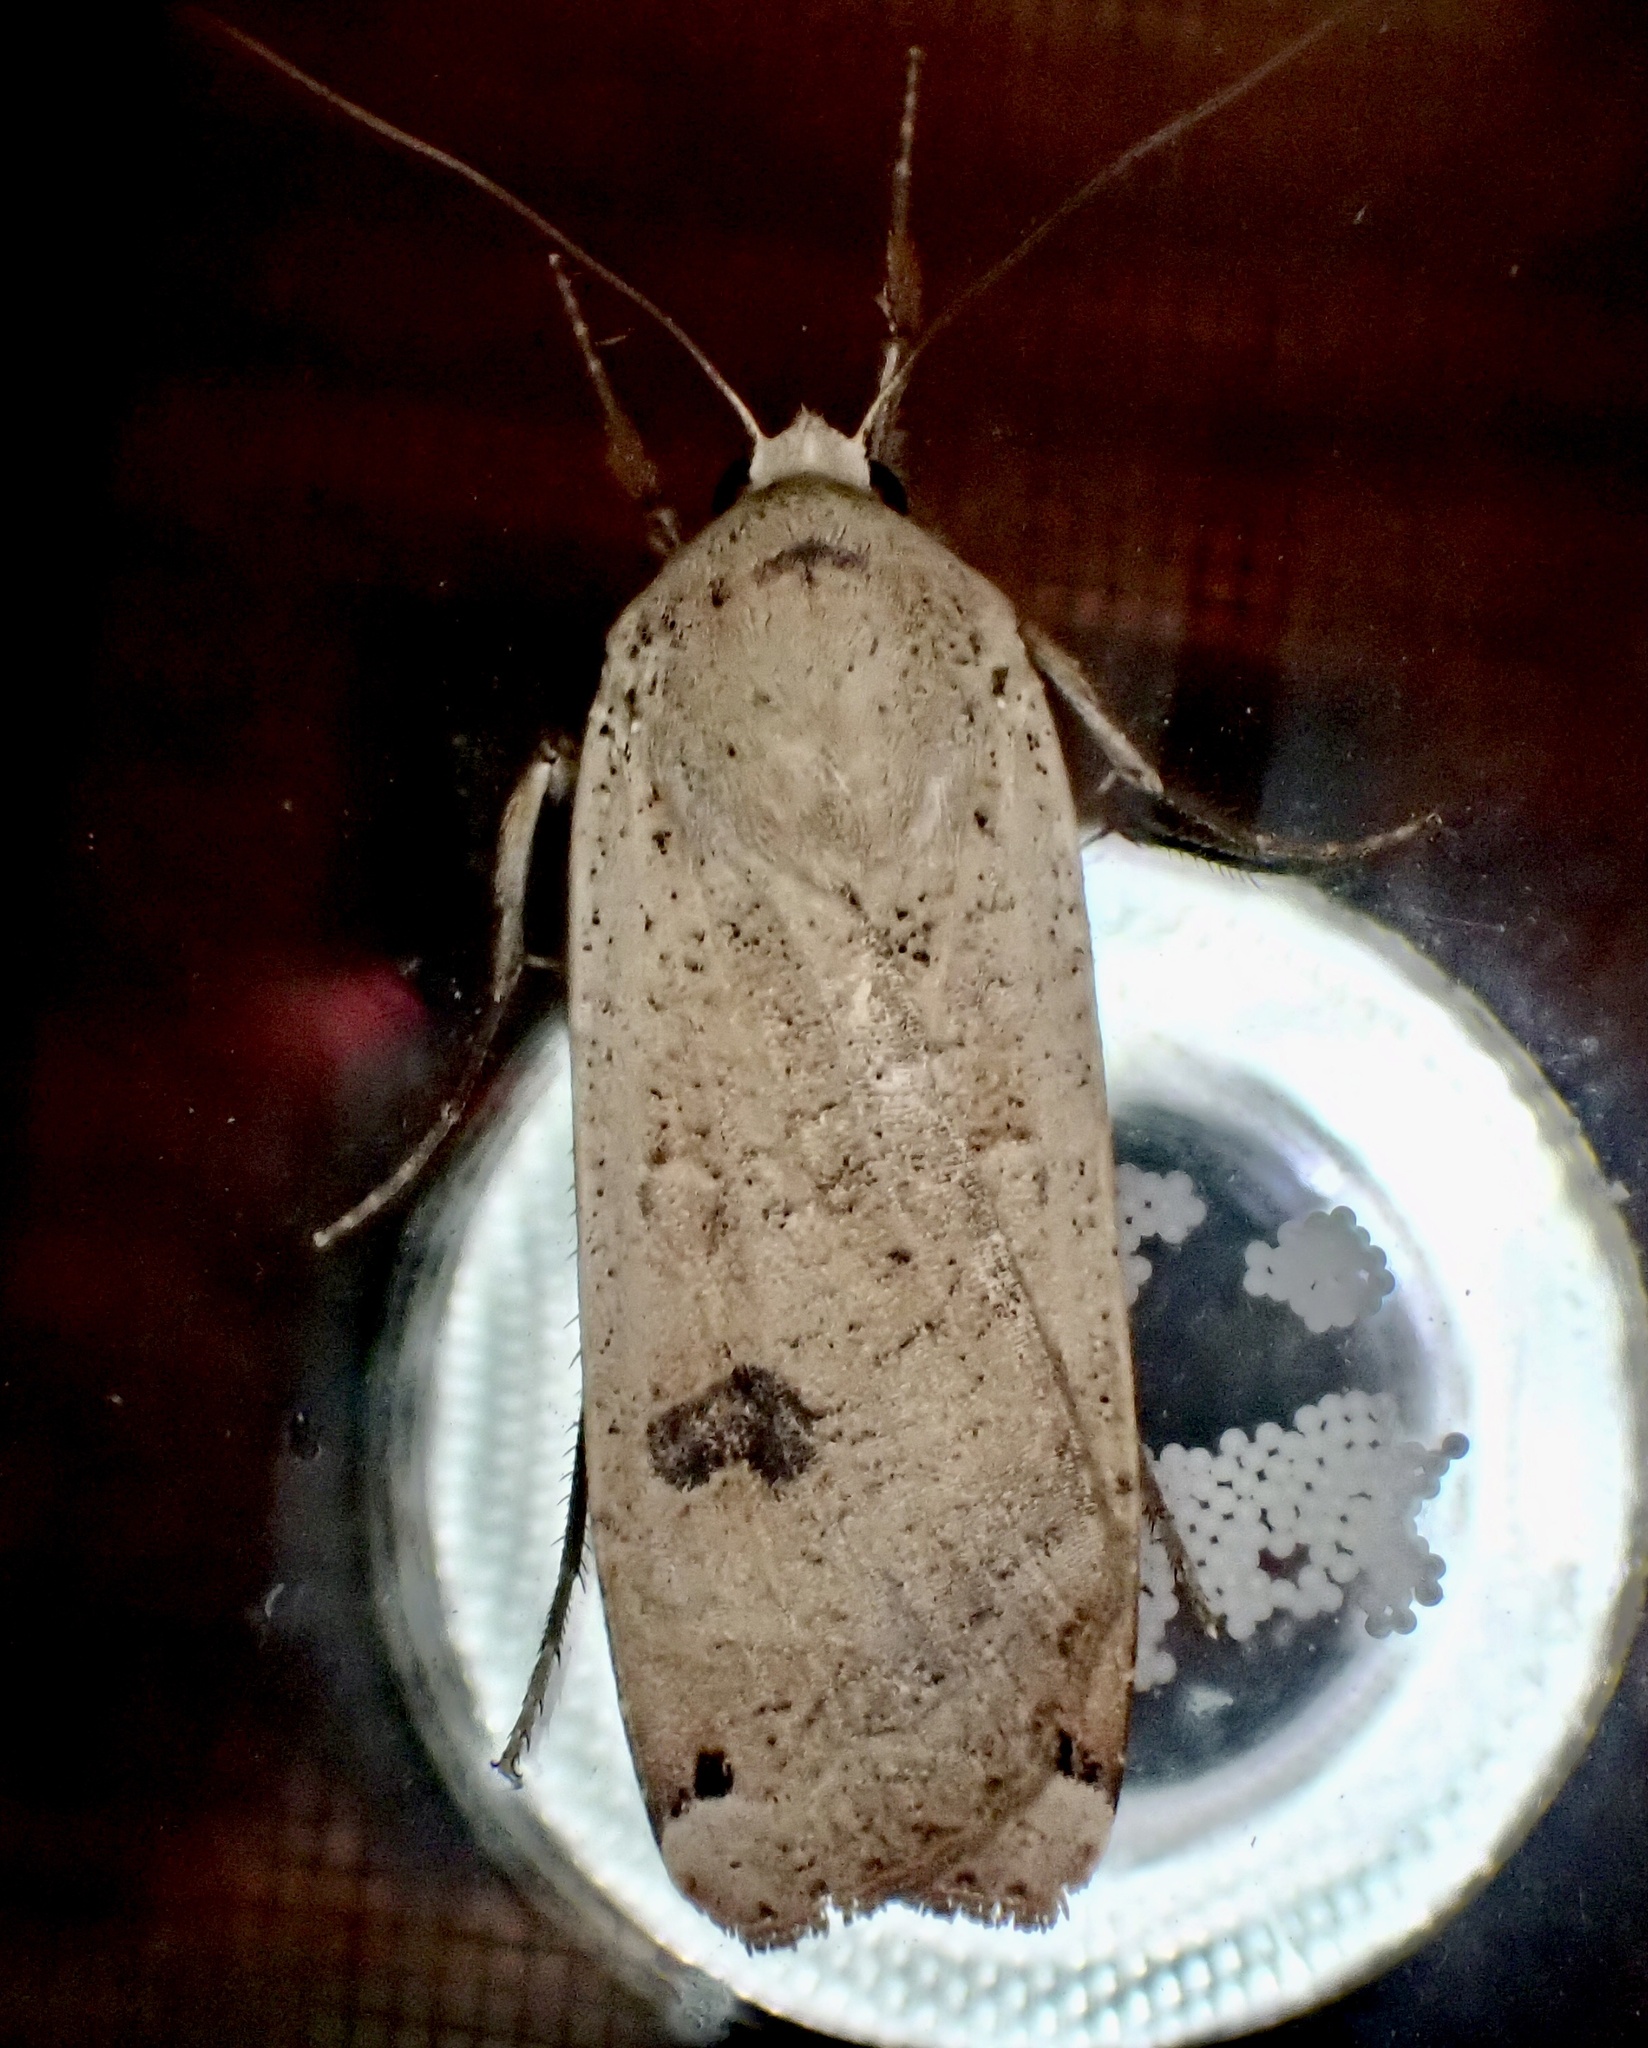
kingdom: Animalia
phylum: Arthropoda
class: Insecta
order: Lepidoptera
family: Noctuidae
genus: Noctua
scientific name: Noctua pronuba
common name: Large yellow underwing
